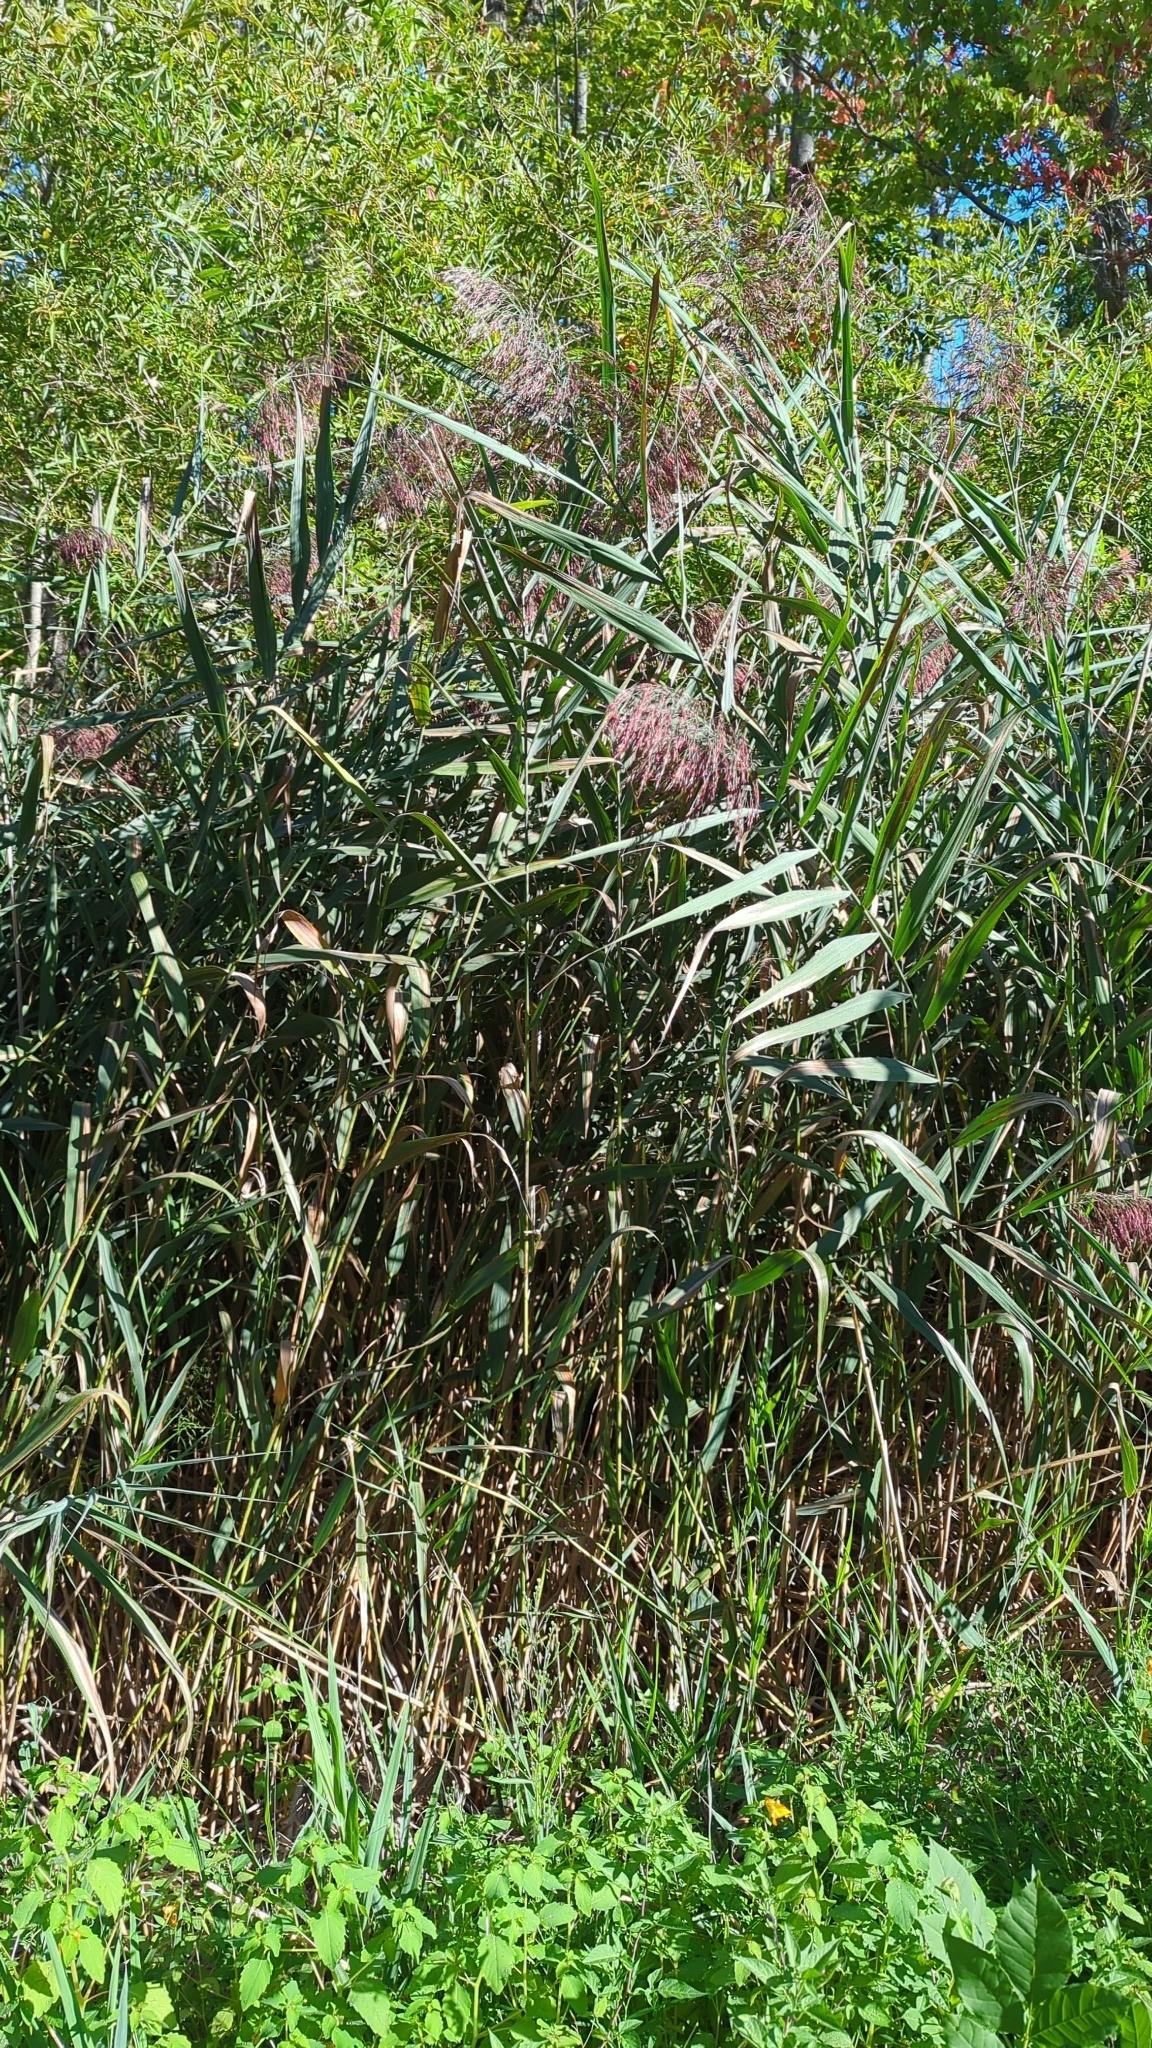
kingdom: Plantae
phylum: Tracheophyta
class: Liliopsida
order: Poales
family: Poaceae
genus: Phragmites
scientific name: Phragmites australis
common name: Common reed
